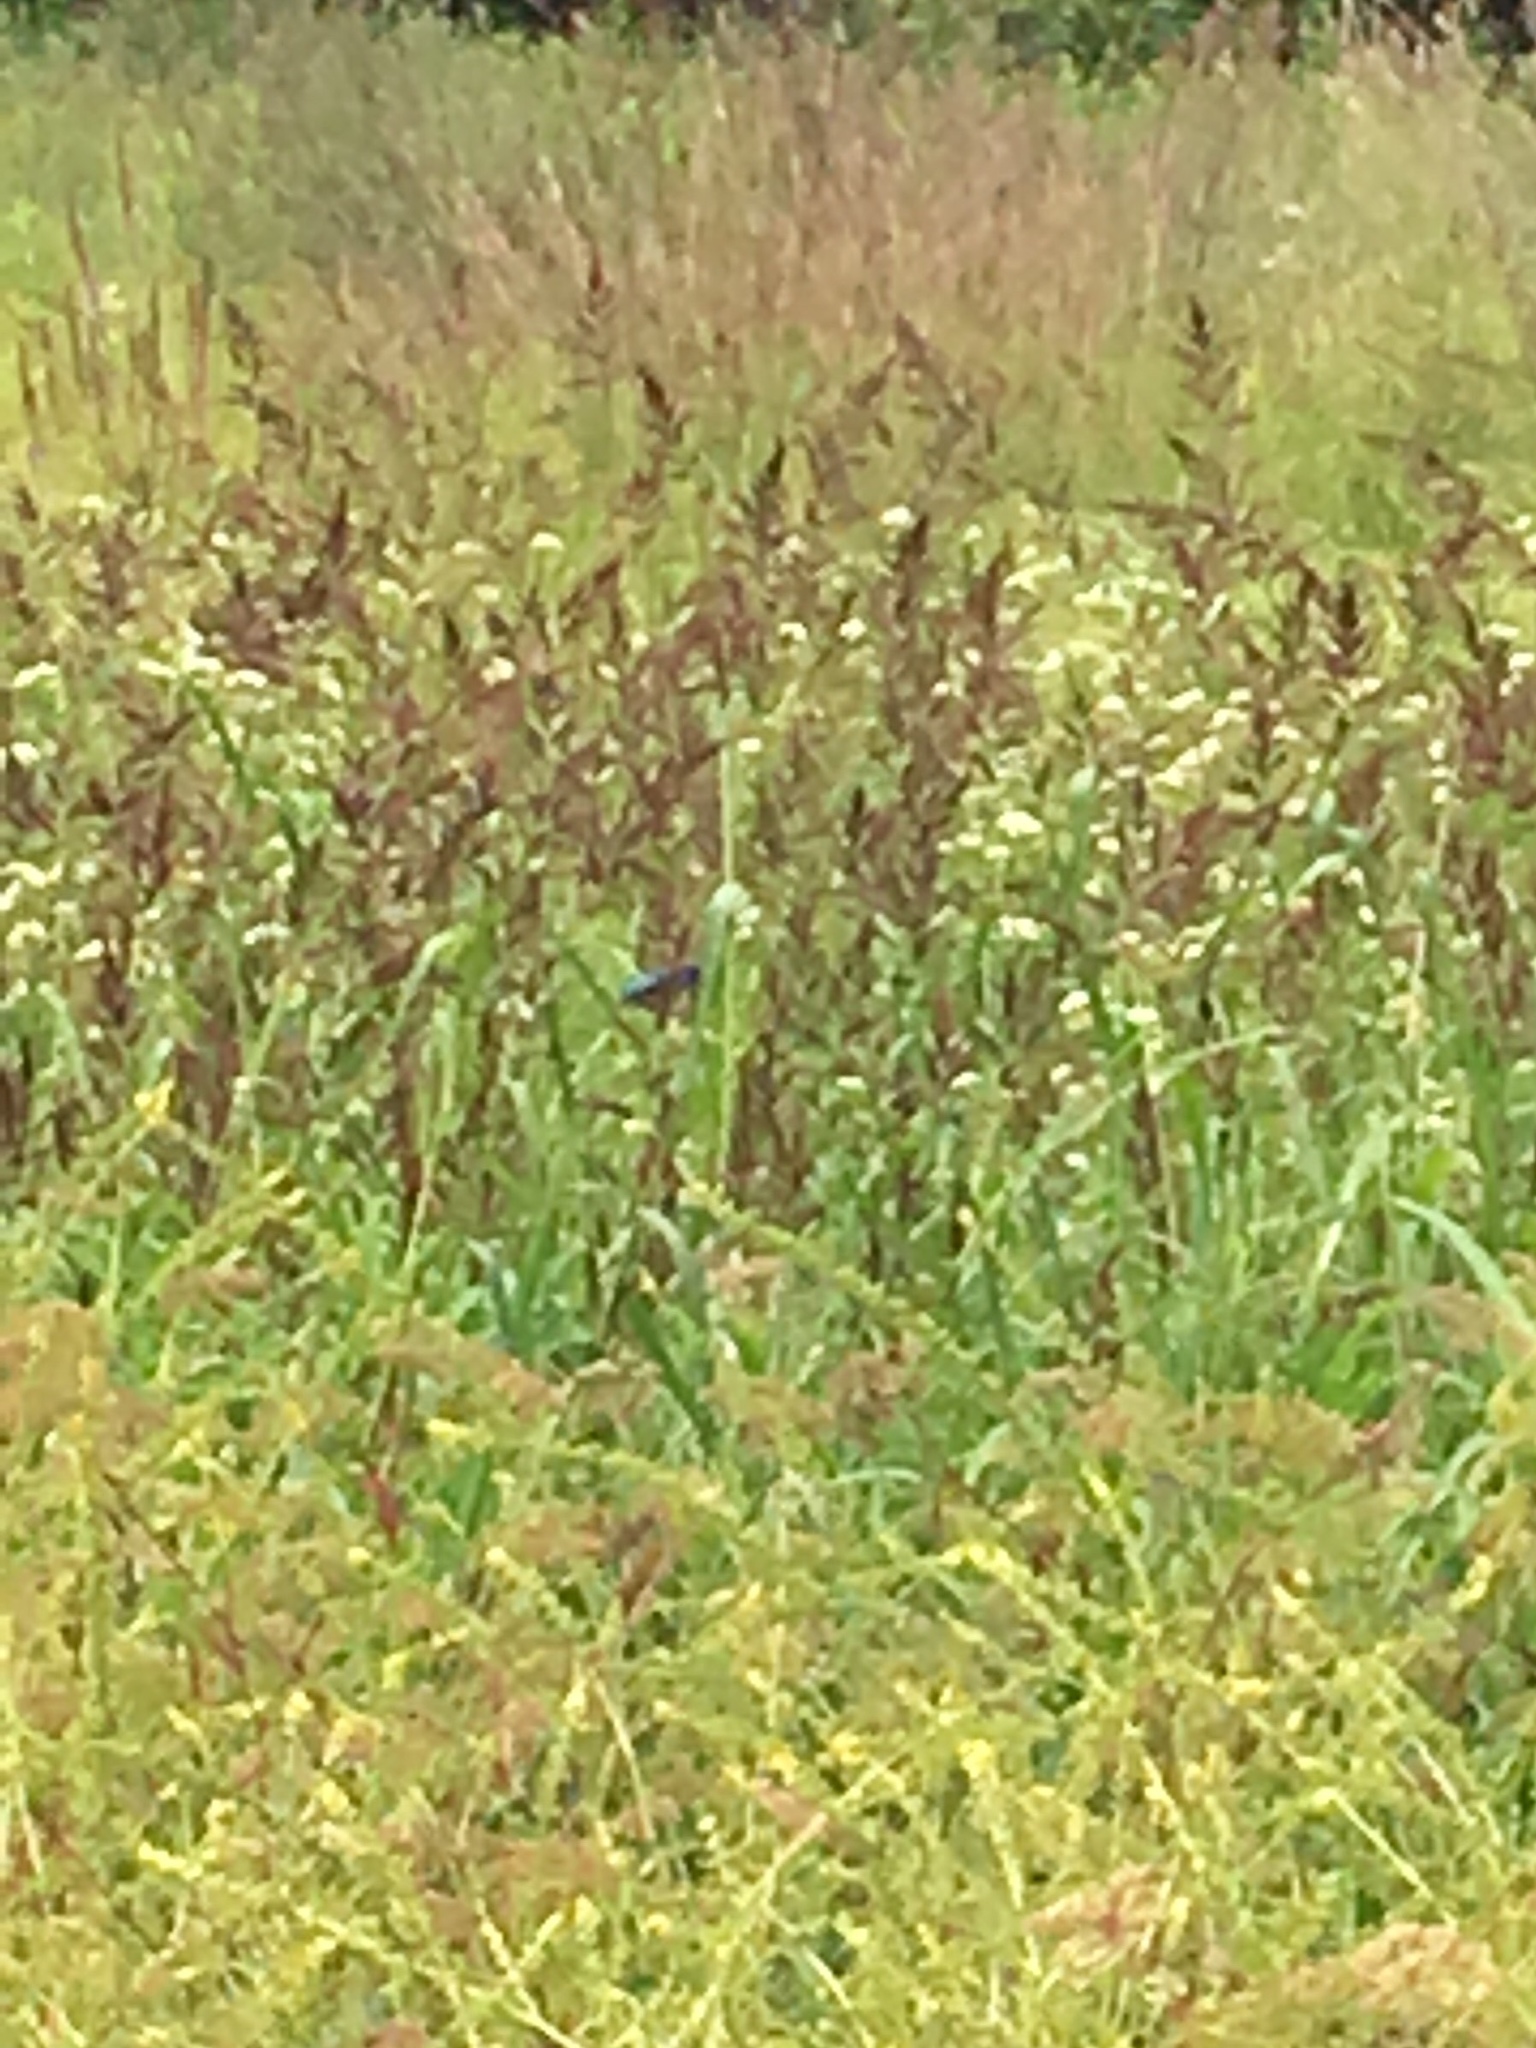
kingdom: Animalia
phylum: Chordata
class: Aves
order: Passeriformes
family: Cardinalidae
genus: Passerina
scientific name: Passerina cyanea
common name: Indigo bunting
